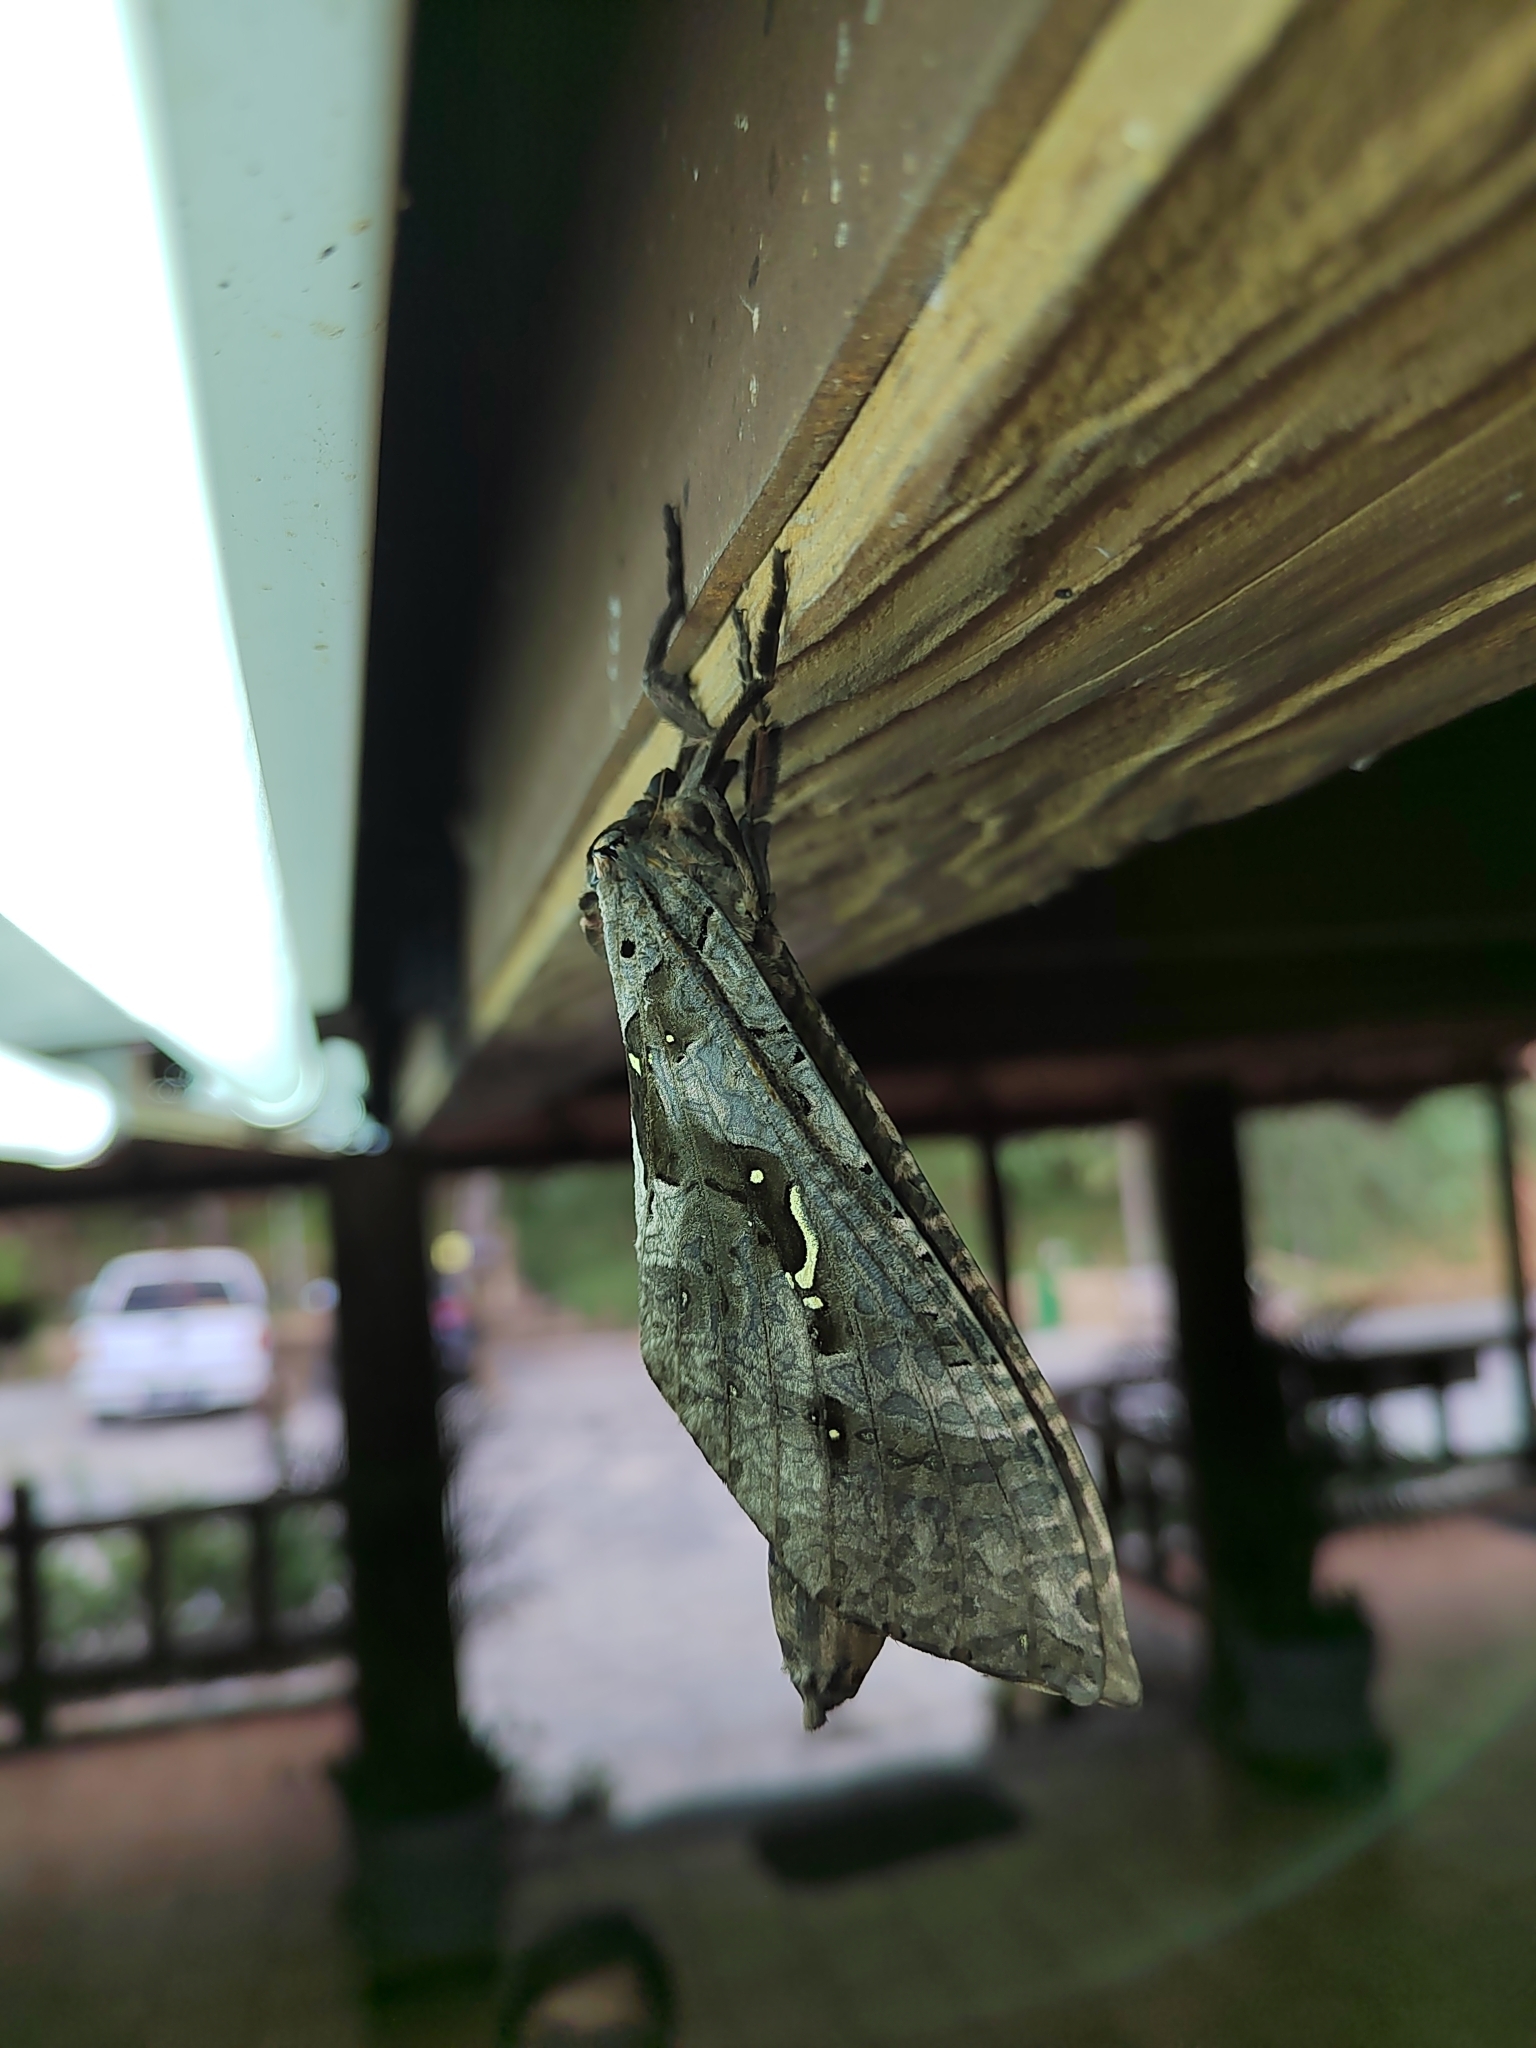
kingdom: Animalia
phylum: Arthropoda
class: Insecta
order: Lepidoptera
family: Hepialidae
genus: Phassus
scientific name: Phassus
